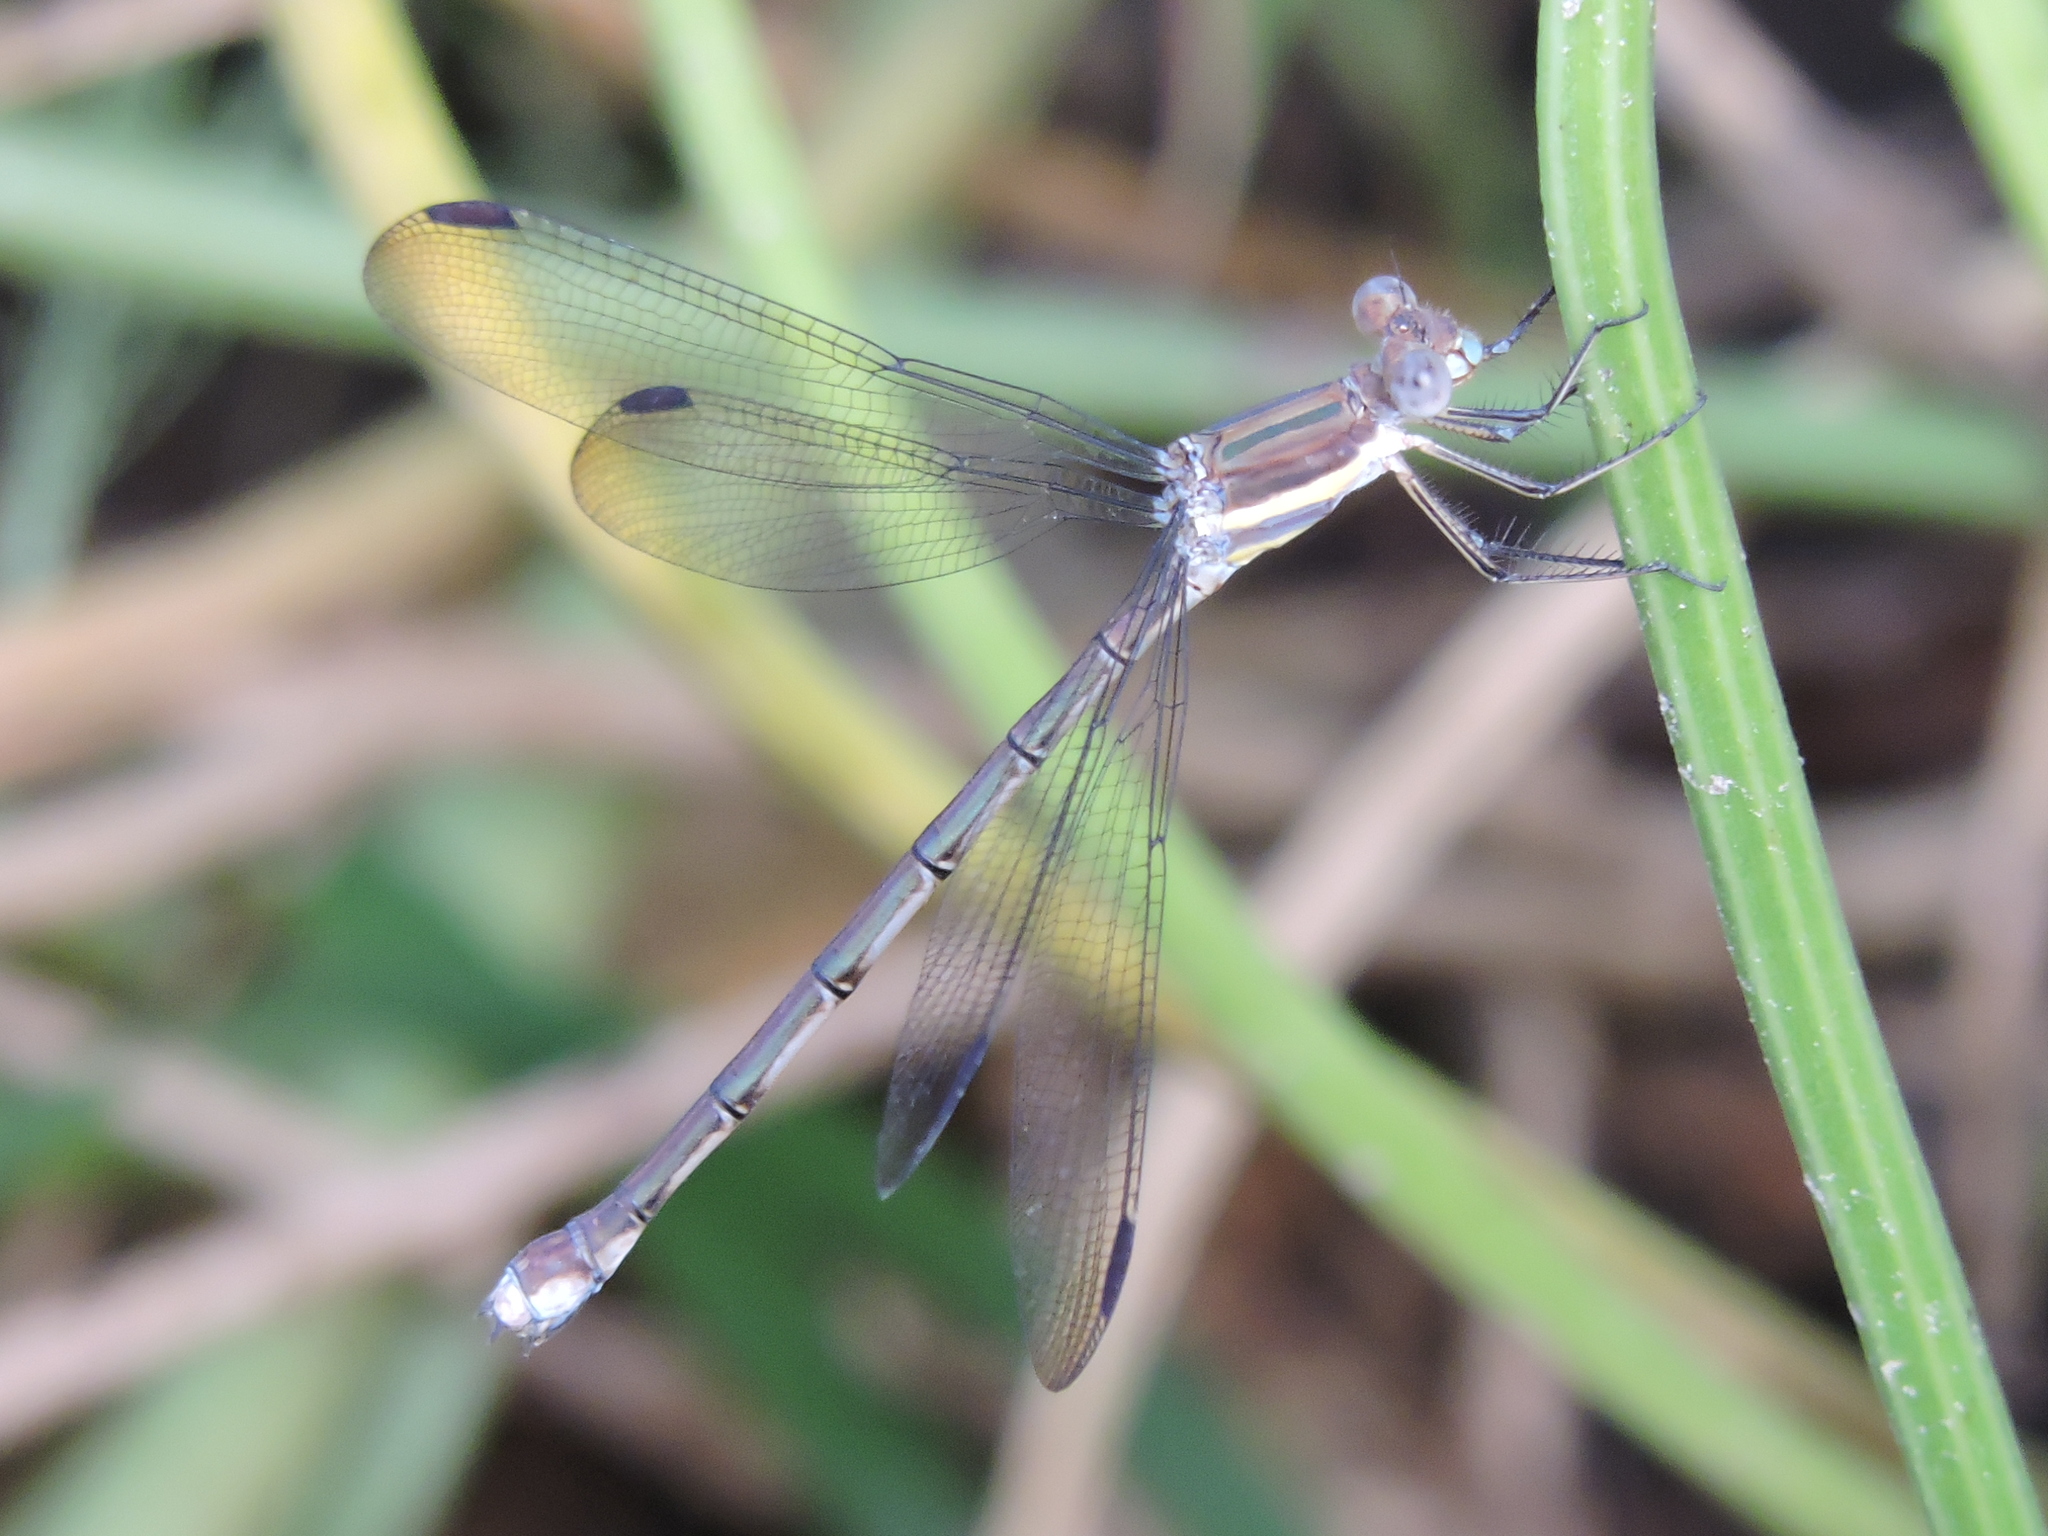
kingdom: Animalia
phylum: Arthropoda
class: Insecta
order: Odonata
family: Lestidae
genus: Archilestes
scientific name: Archilestes grandis
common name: Great spreadwing
